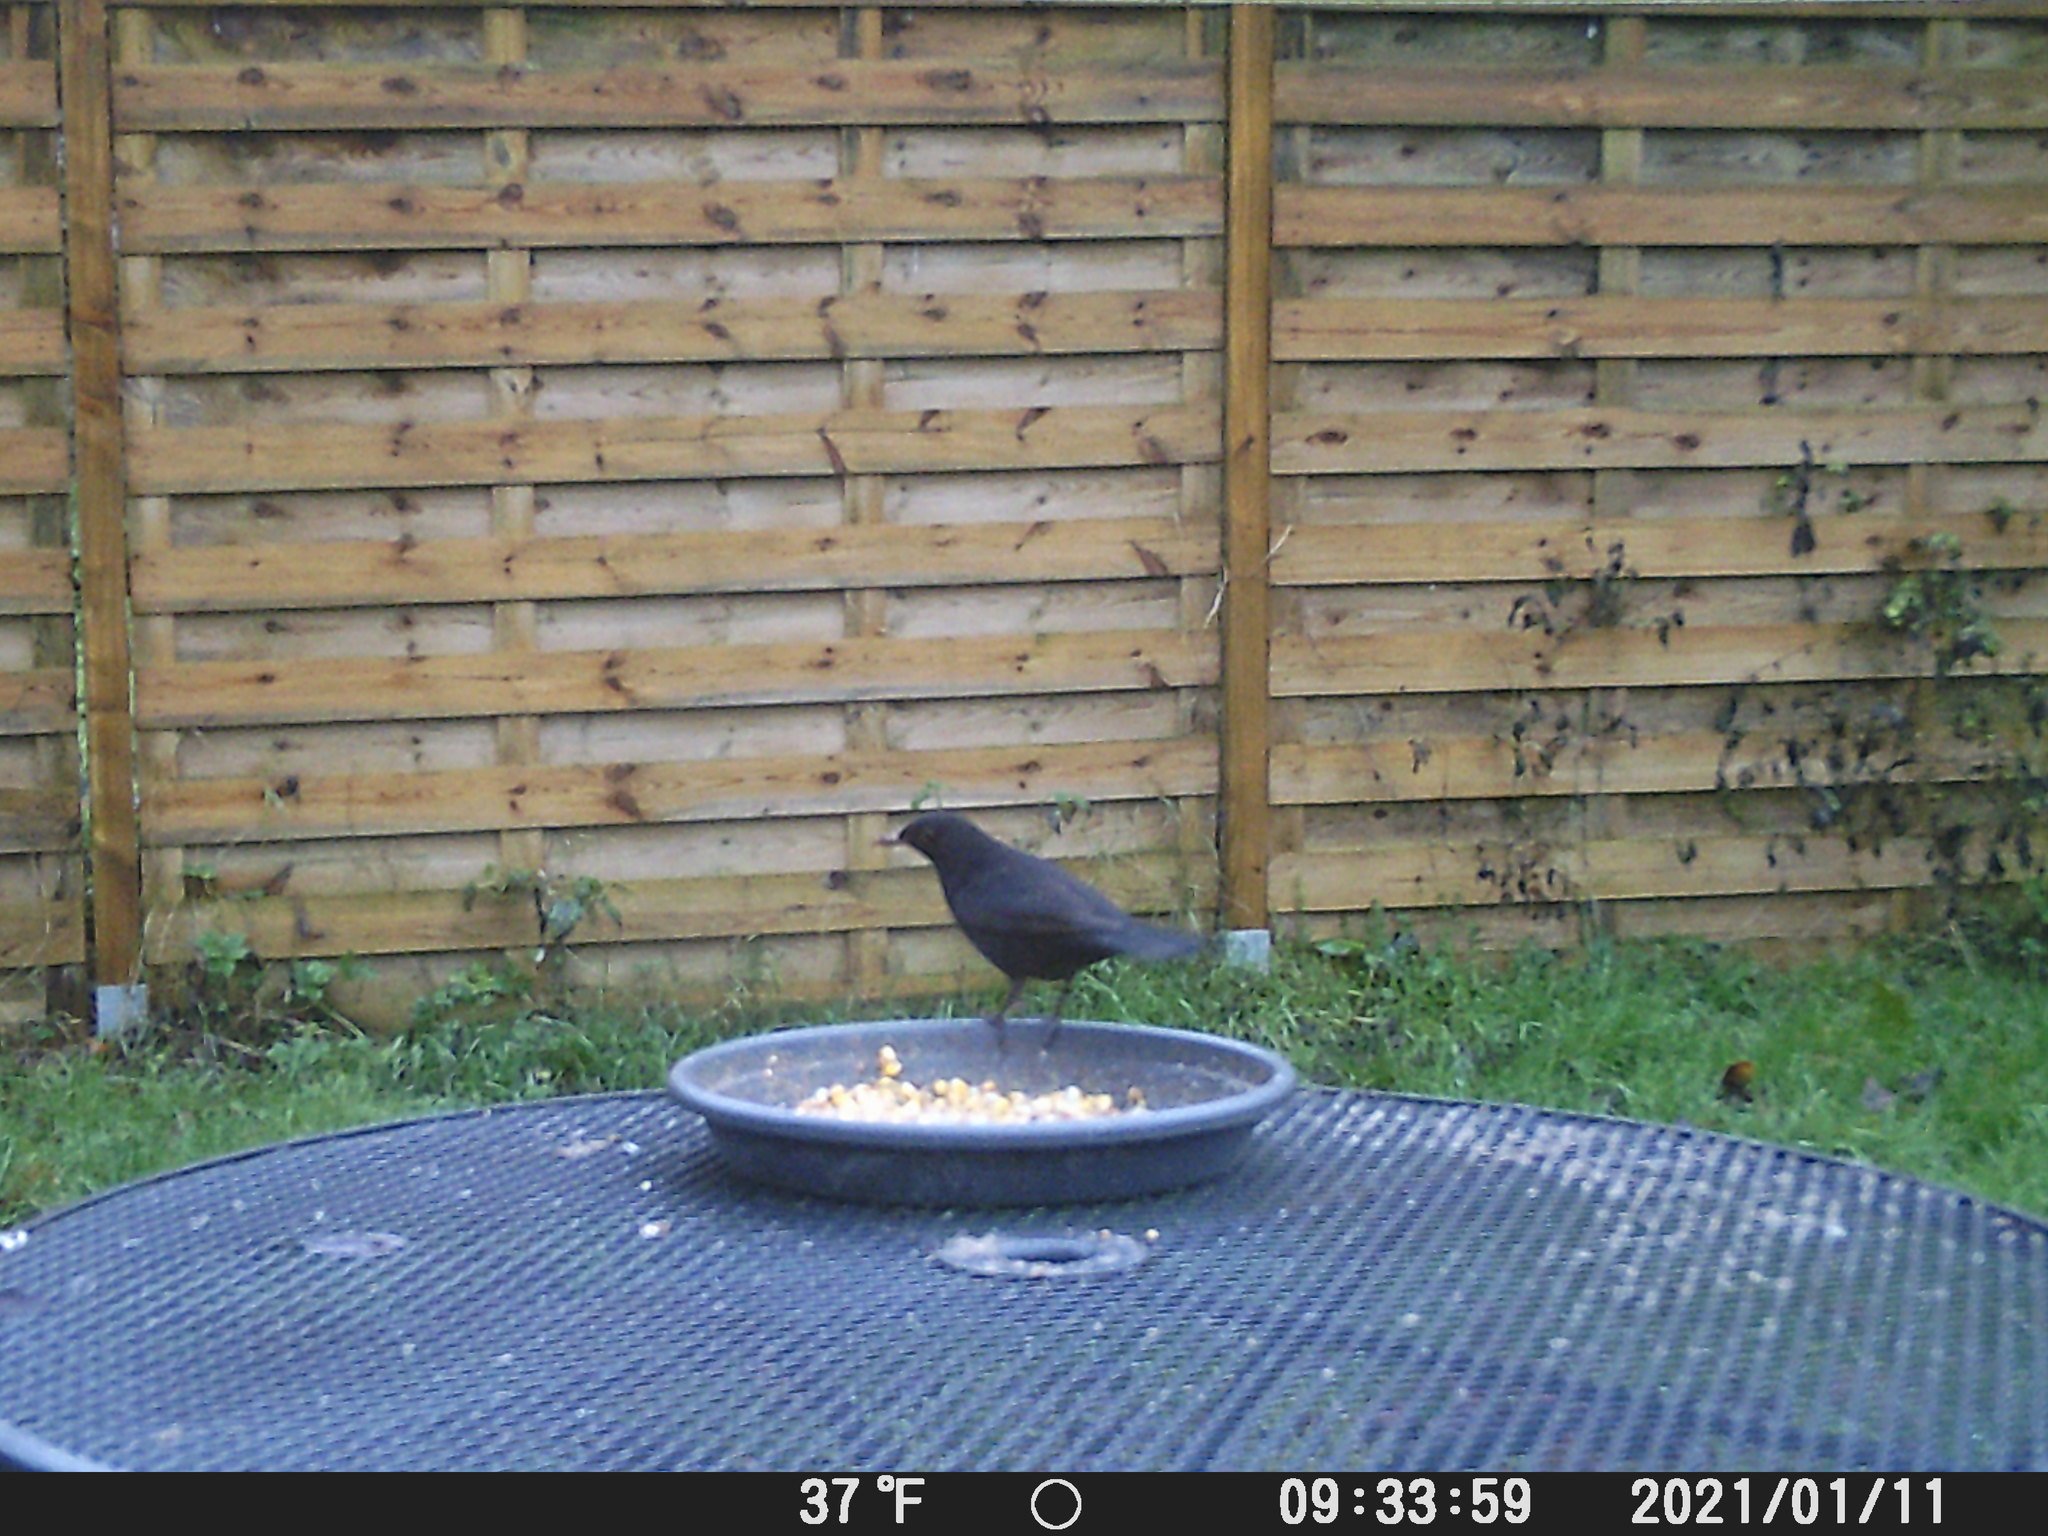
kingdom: Animalia
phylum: Chordata
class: Aves
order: Passeriformes
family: Turdidae
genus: Turdus
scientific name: Turdus merula
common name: Common blackbird
